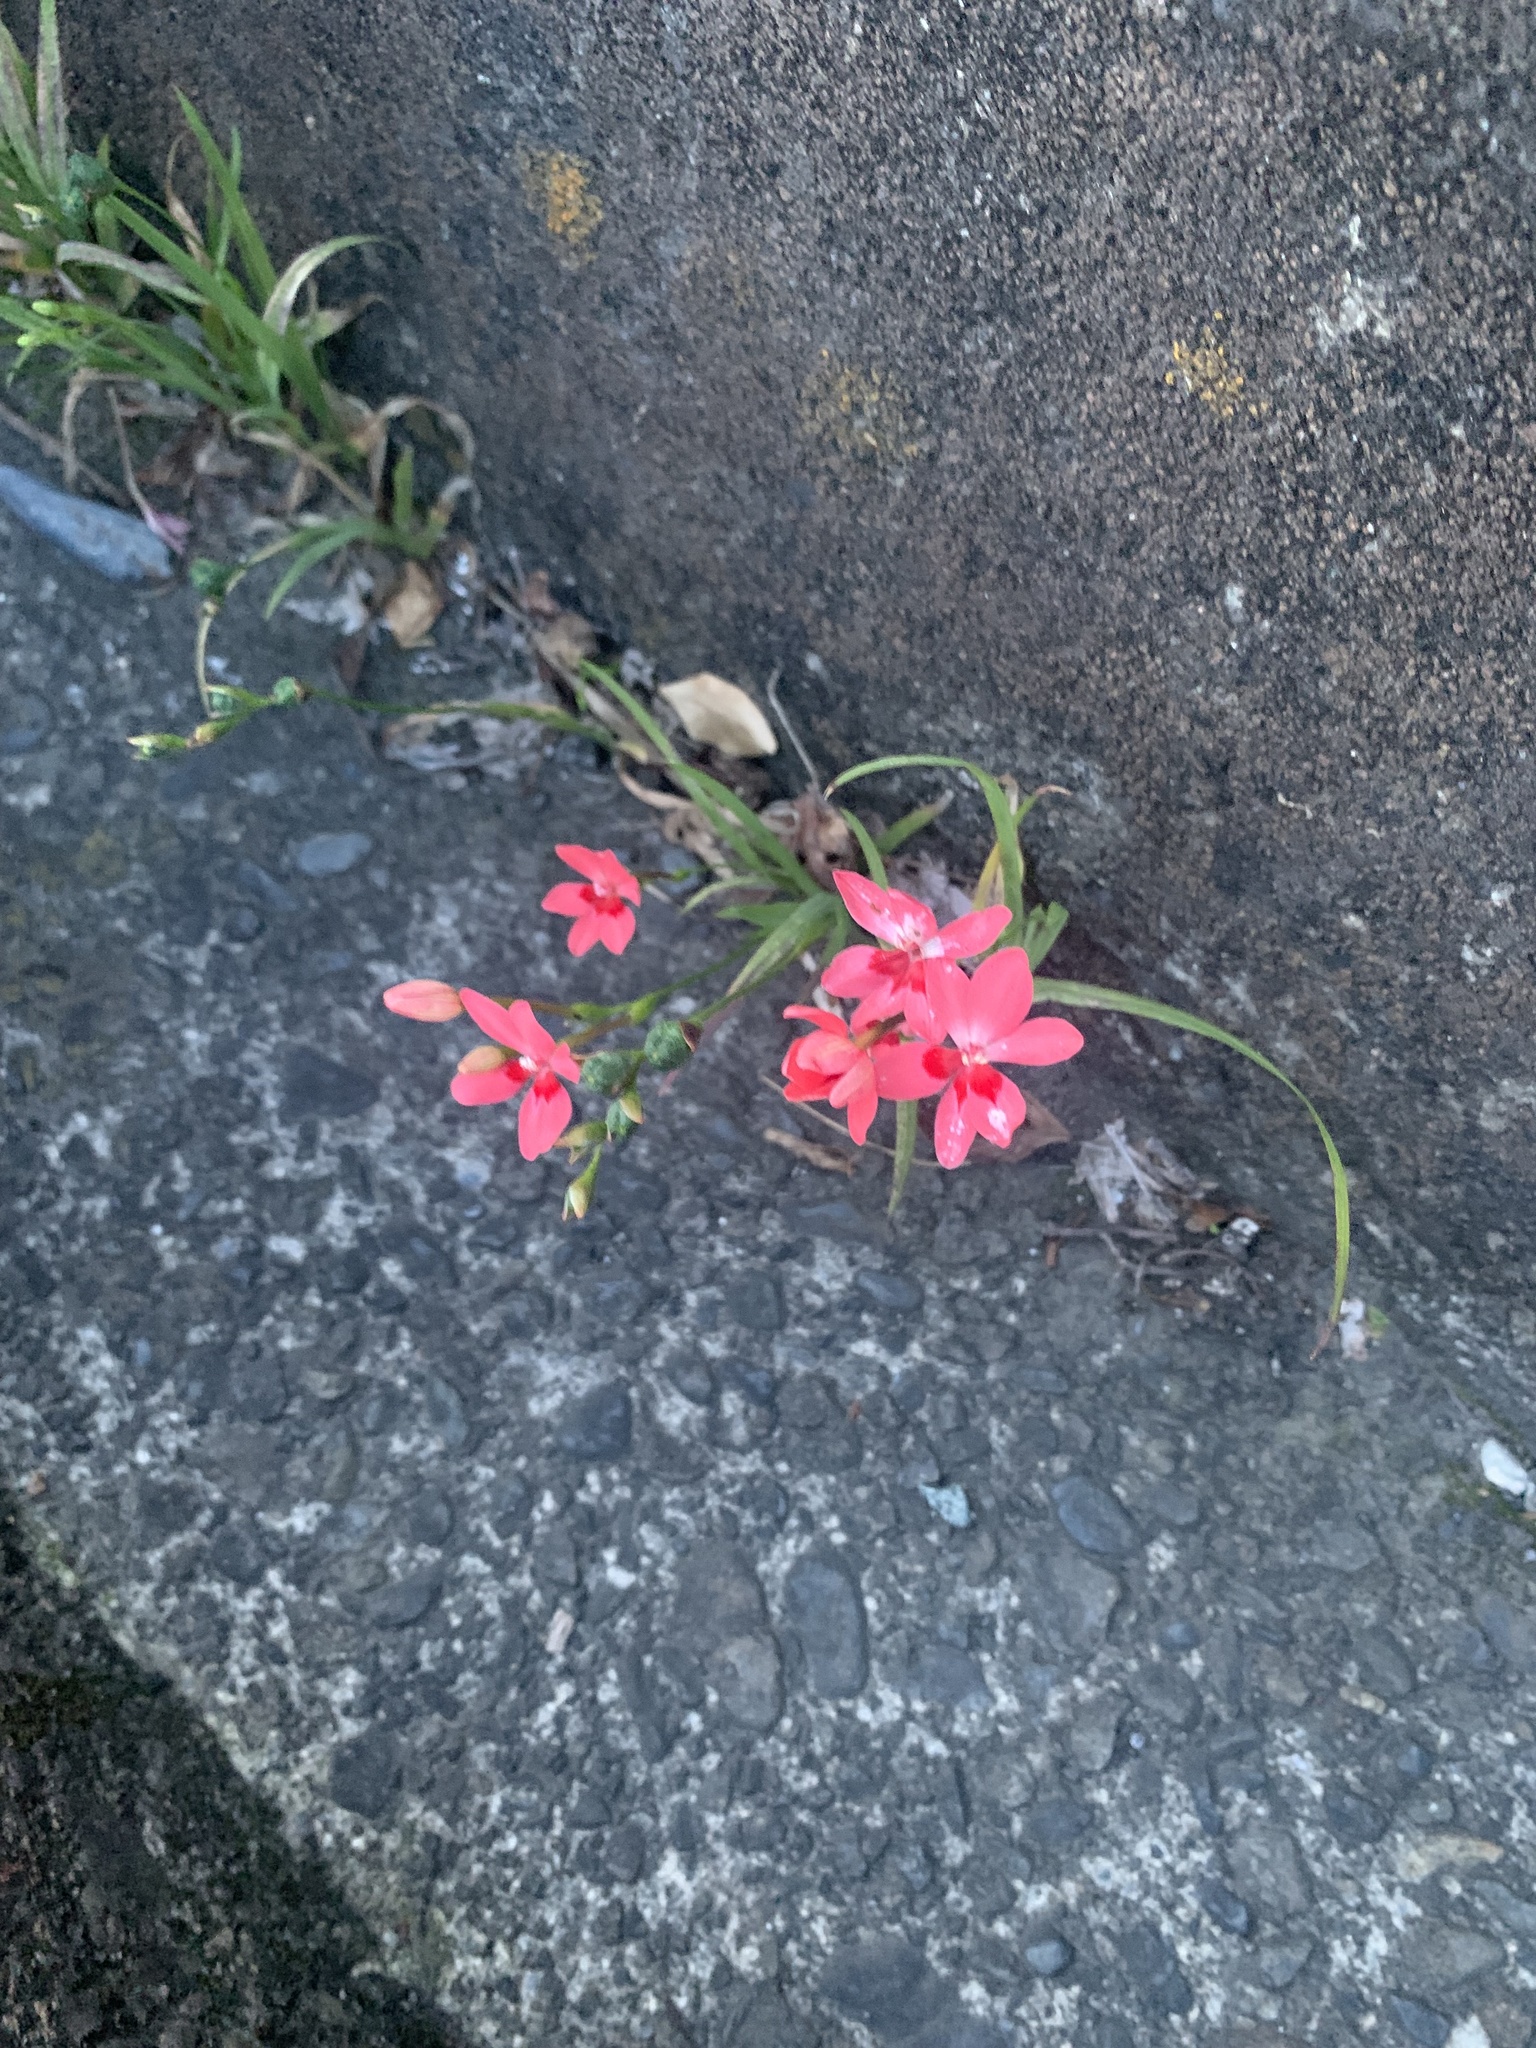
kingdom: Plantae
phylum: Tracheophyta
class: Liliopsida
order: Asparagales
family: Iridaceae
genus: Freesia
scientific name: Freesia laxa
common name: False freesia
